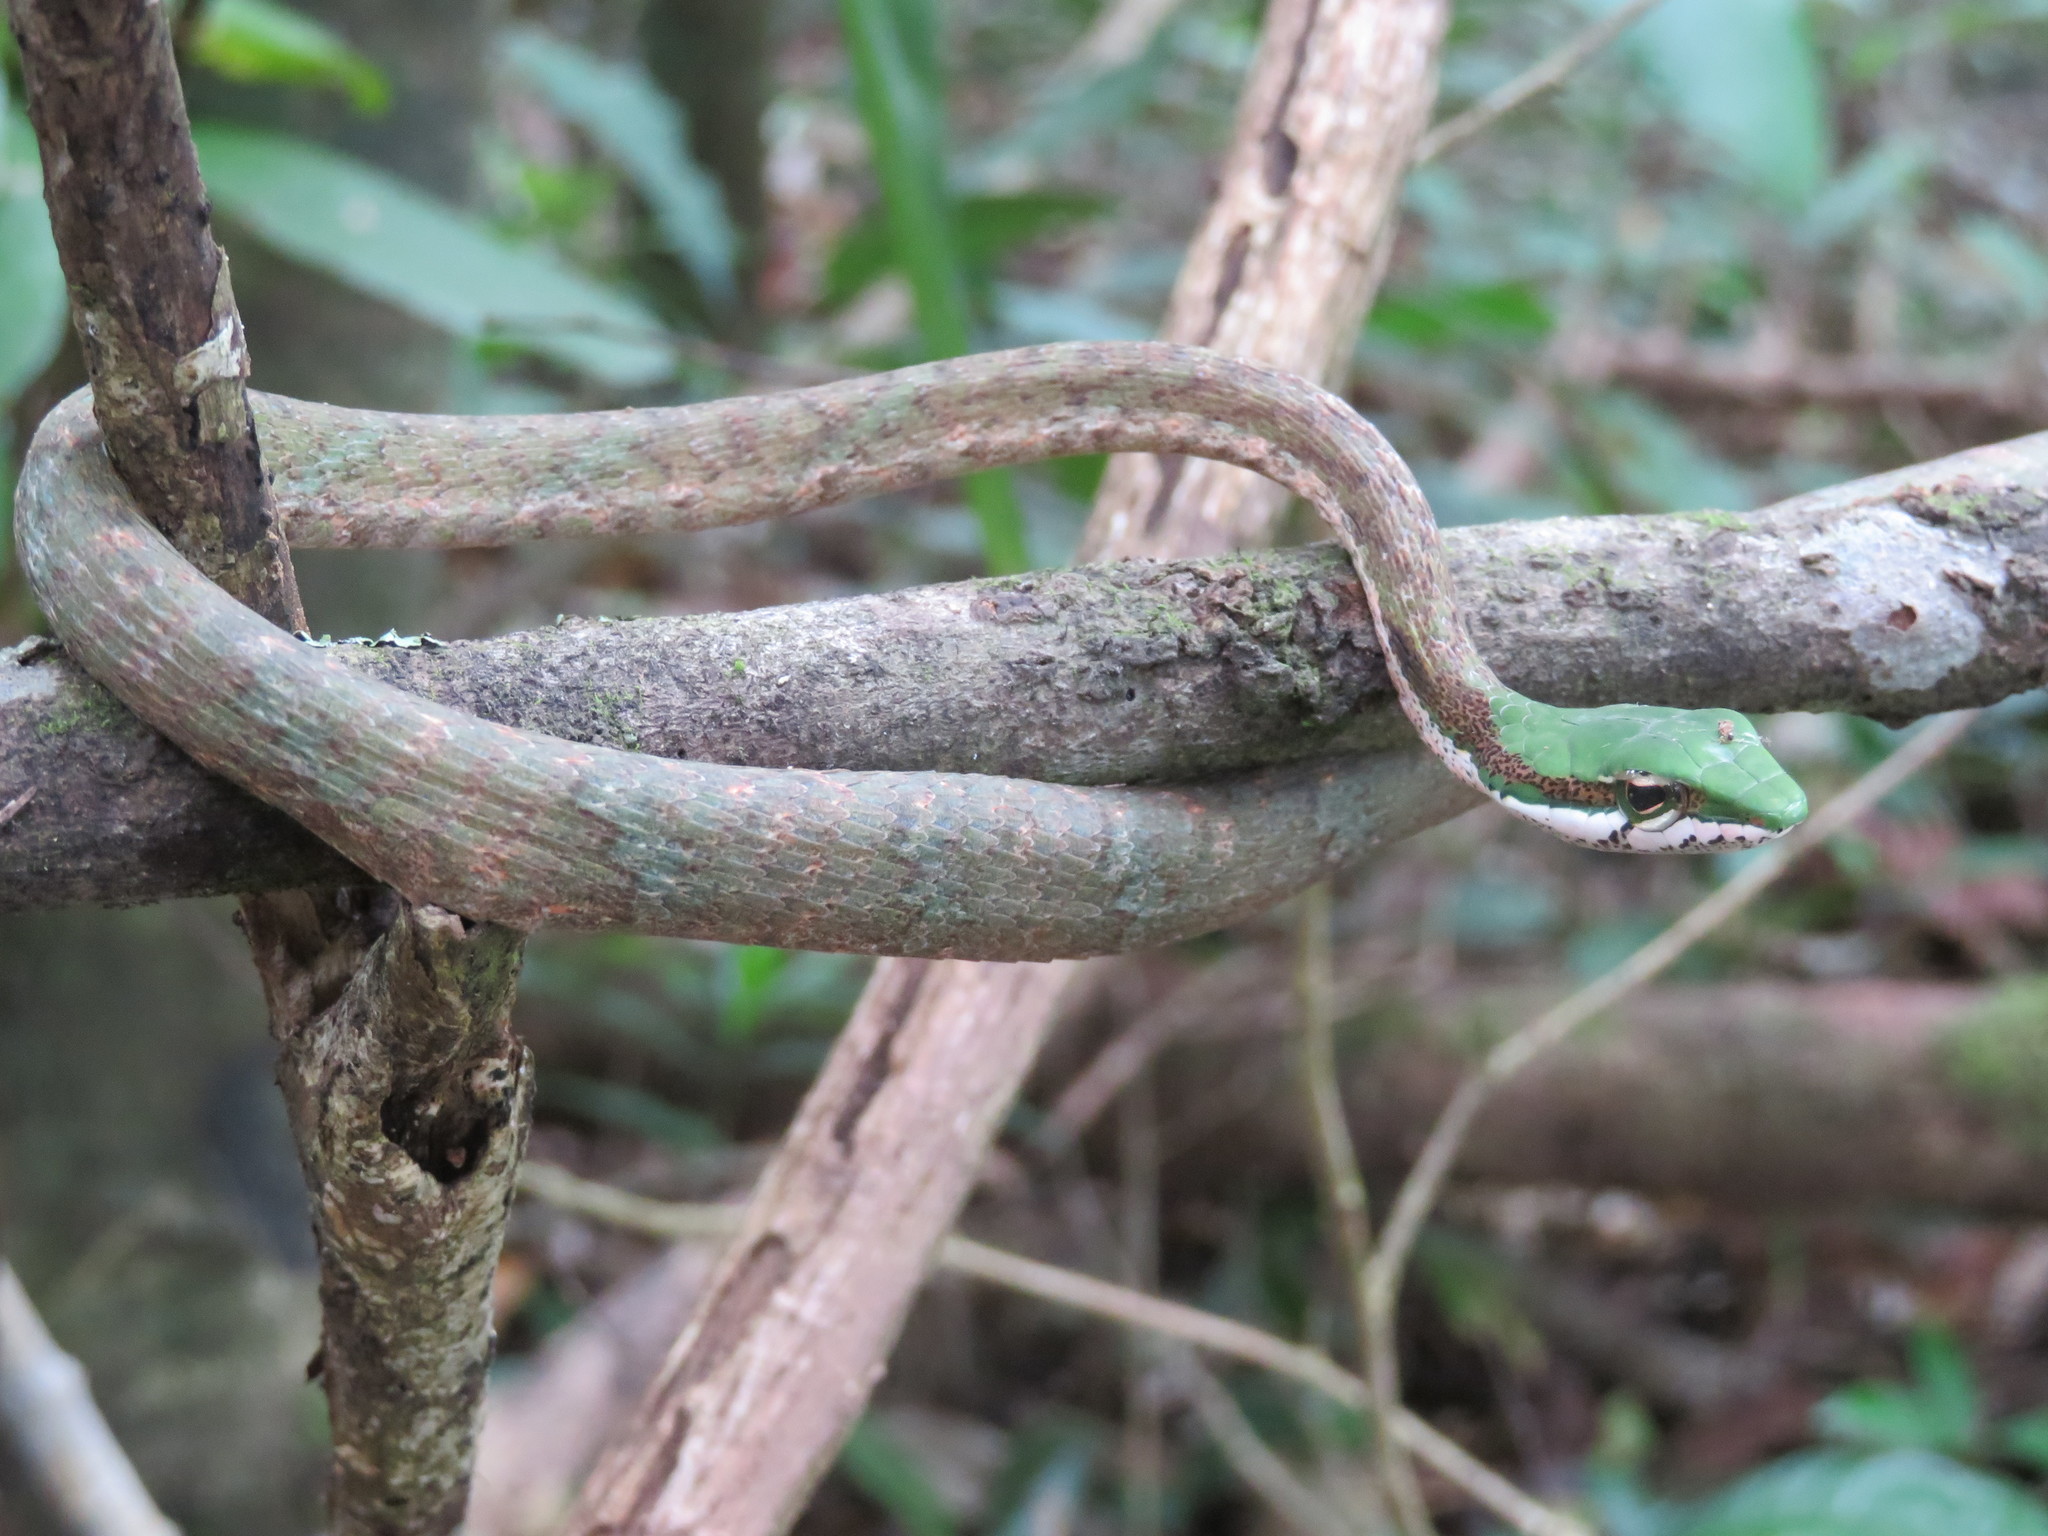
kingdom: Animalia
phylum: Chordata
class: Squamata
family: Colubridae
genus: Thelotornis
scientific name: Thelotornis mossambicanus
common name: Eastern twig snake
